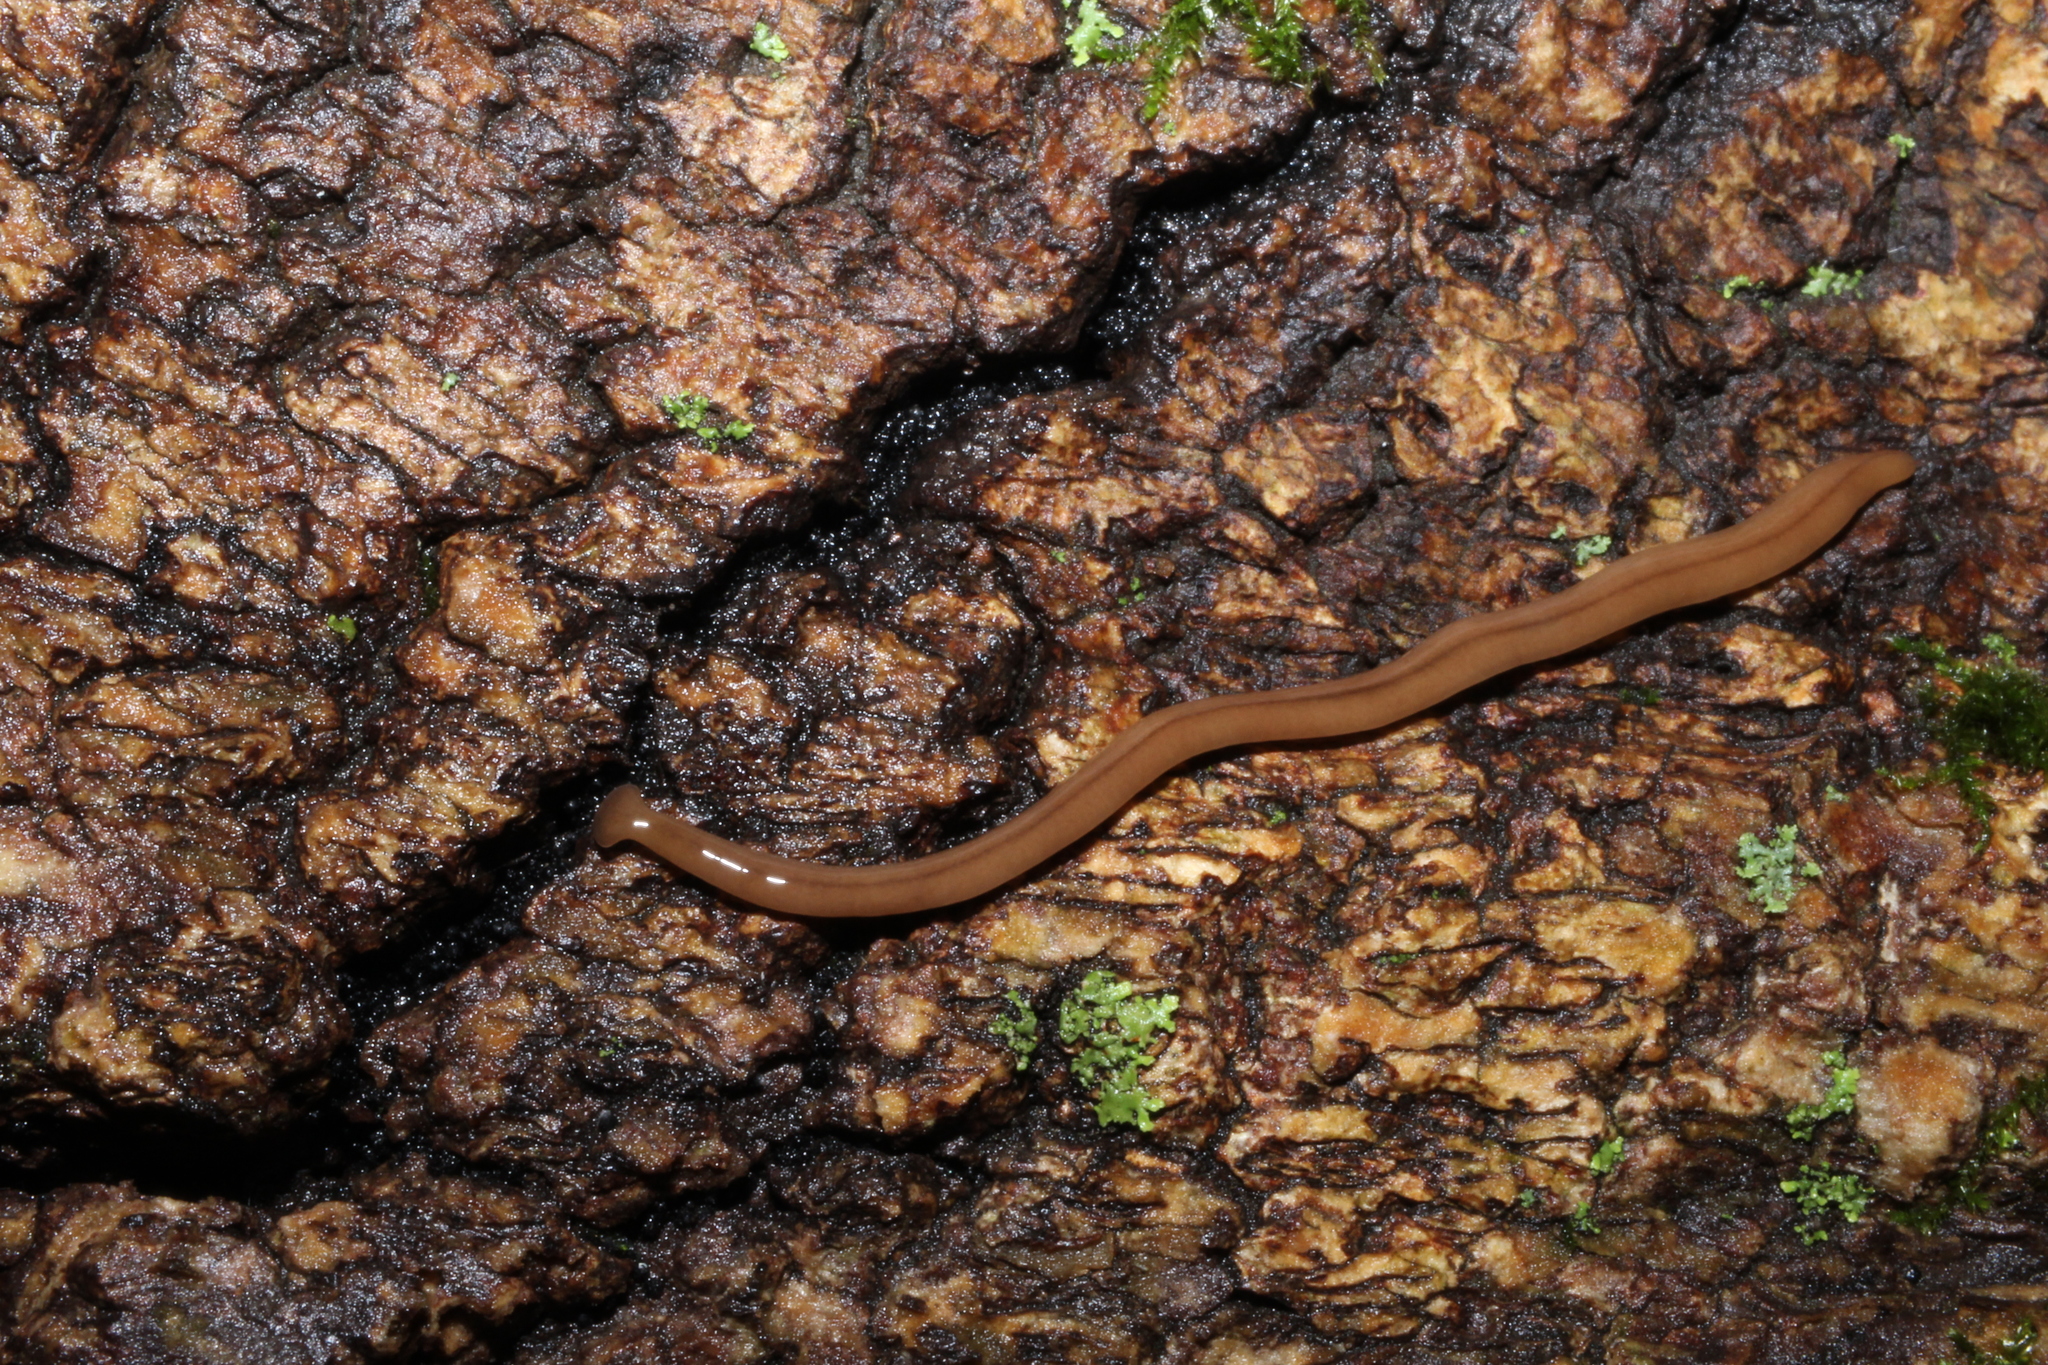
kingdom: Animalia
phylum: Platyhelminthes
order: Tricladida
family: Geoplanidae
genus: Bipalium
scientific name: Bipalium adventitium
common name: Land planarian
